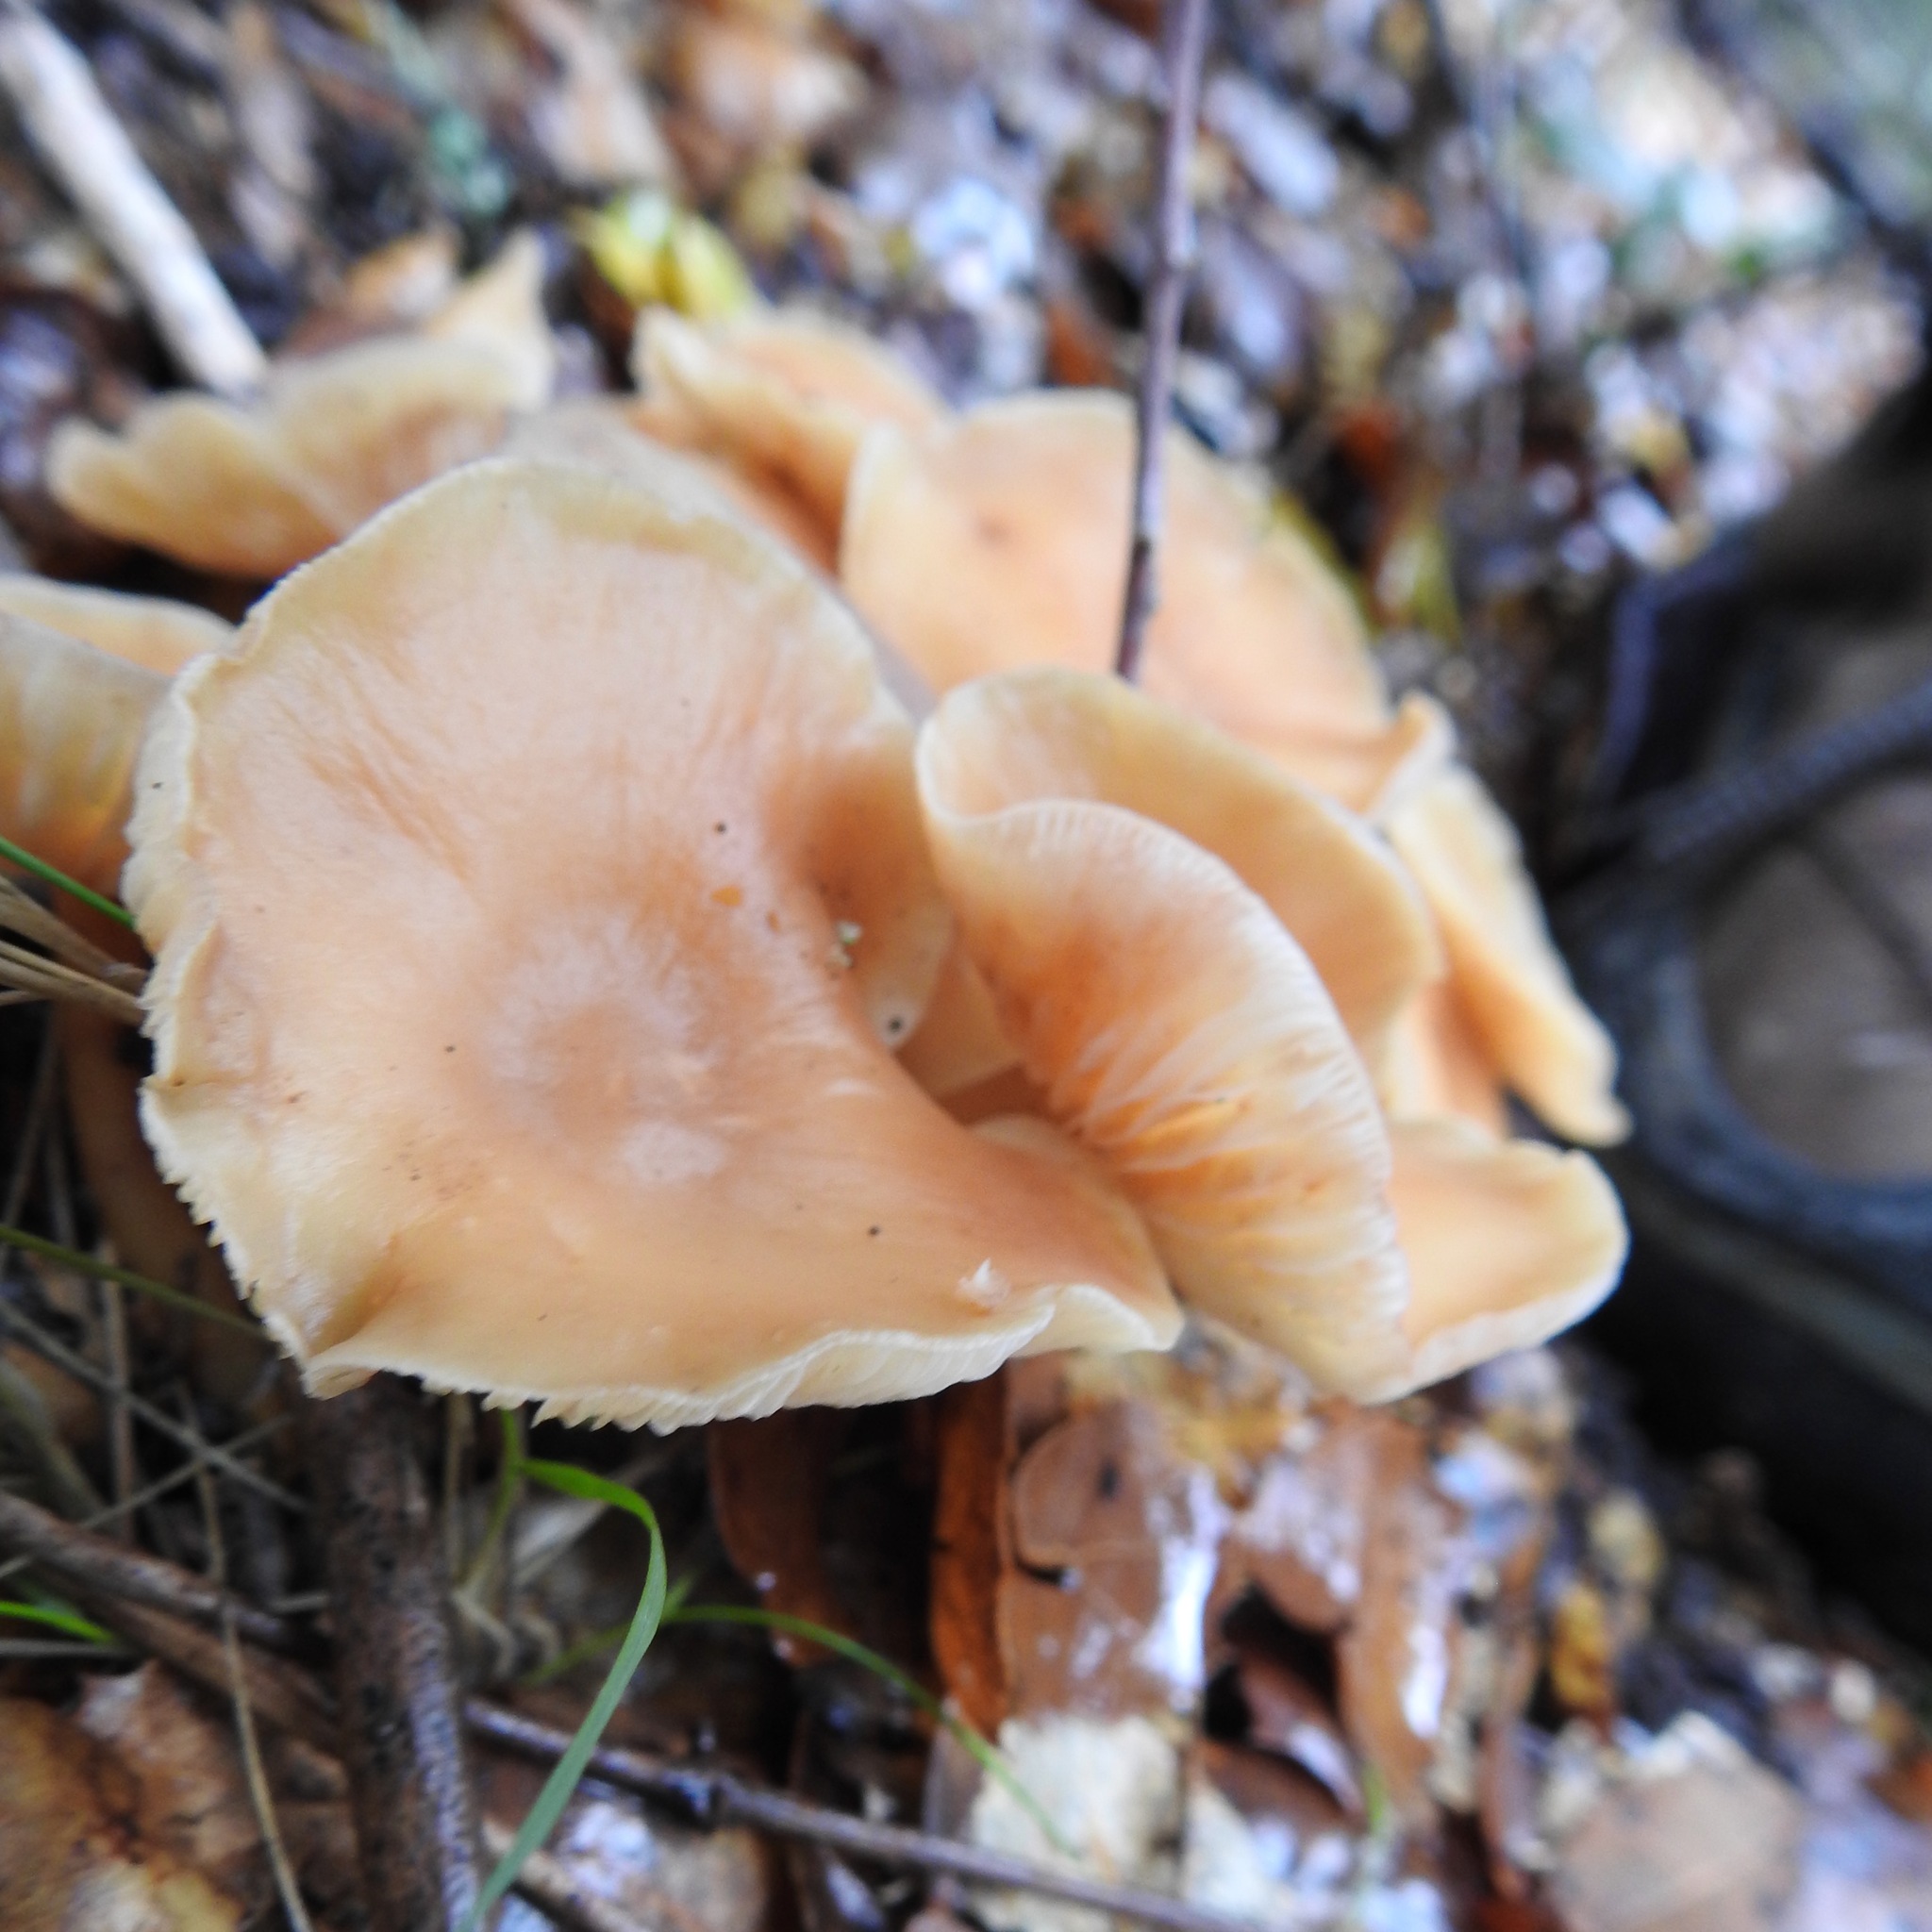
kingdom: Fungi
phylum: Basidiomycota
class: Agaricomycetes
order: Agaricales
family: Omphalotaceae
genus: Gymnopus
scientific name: Gymnopus dryophilus
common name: Penny top
